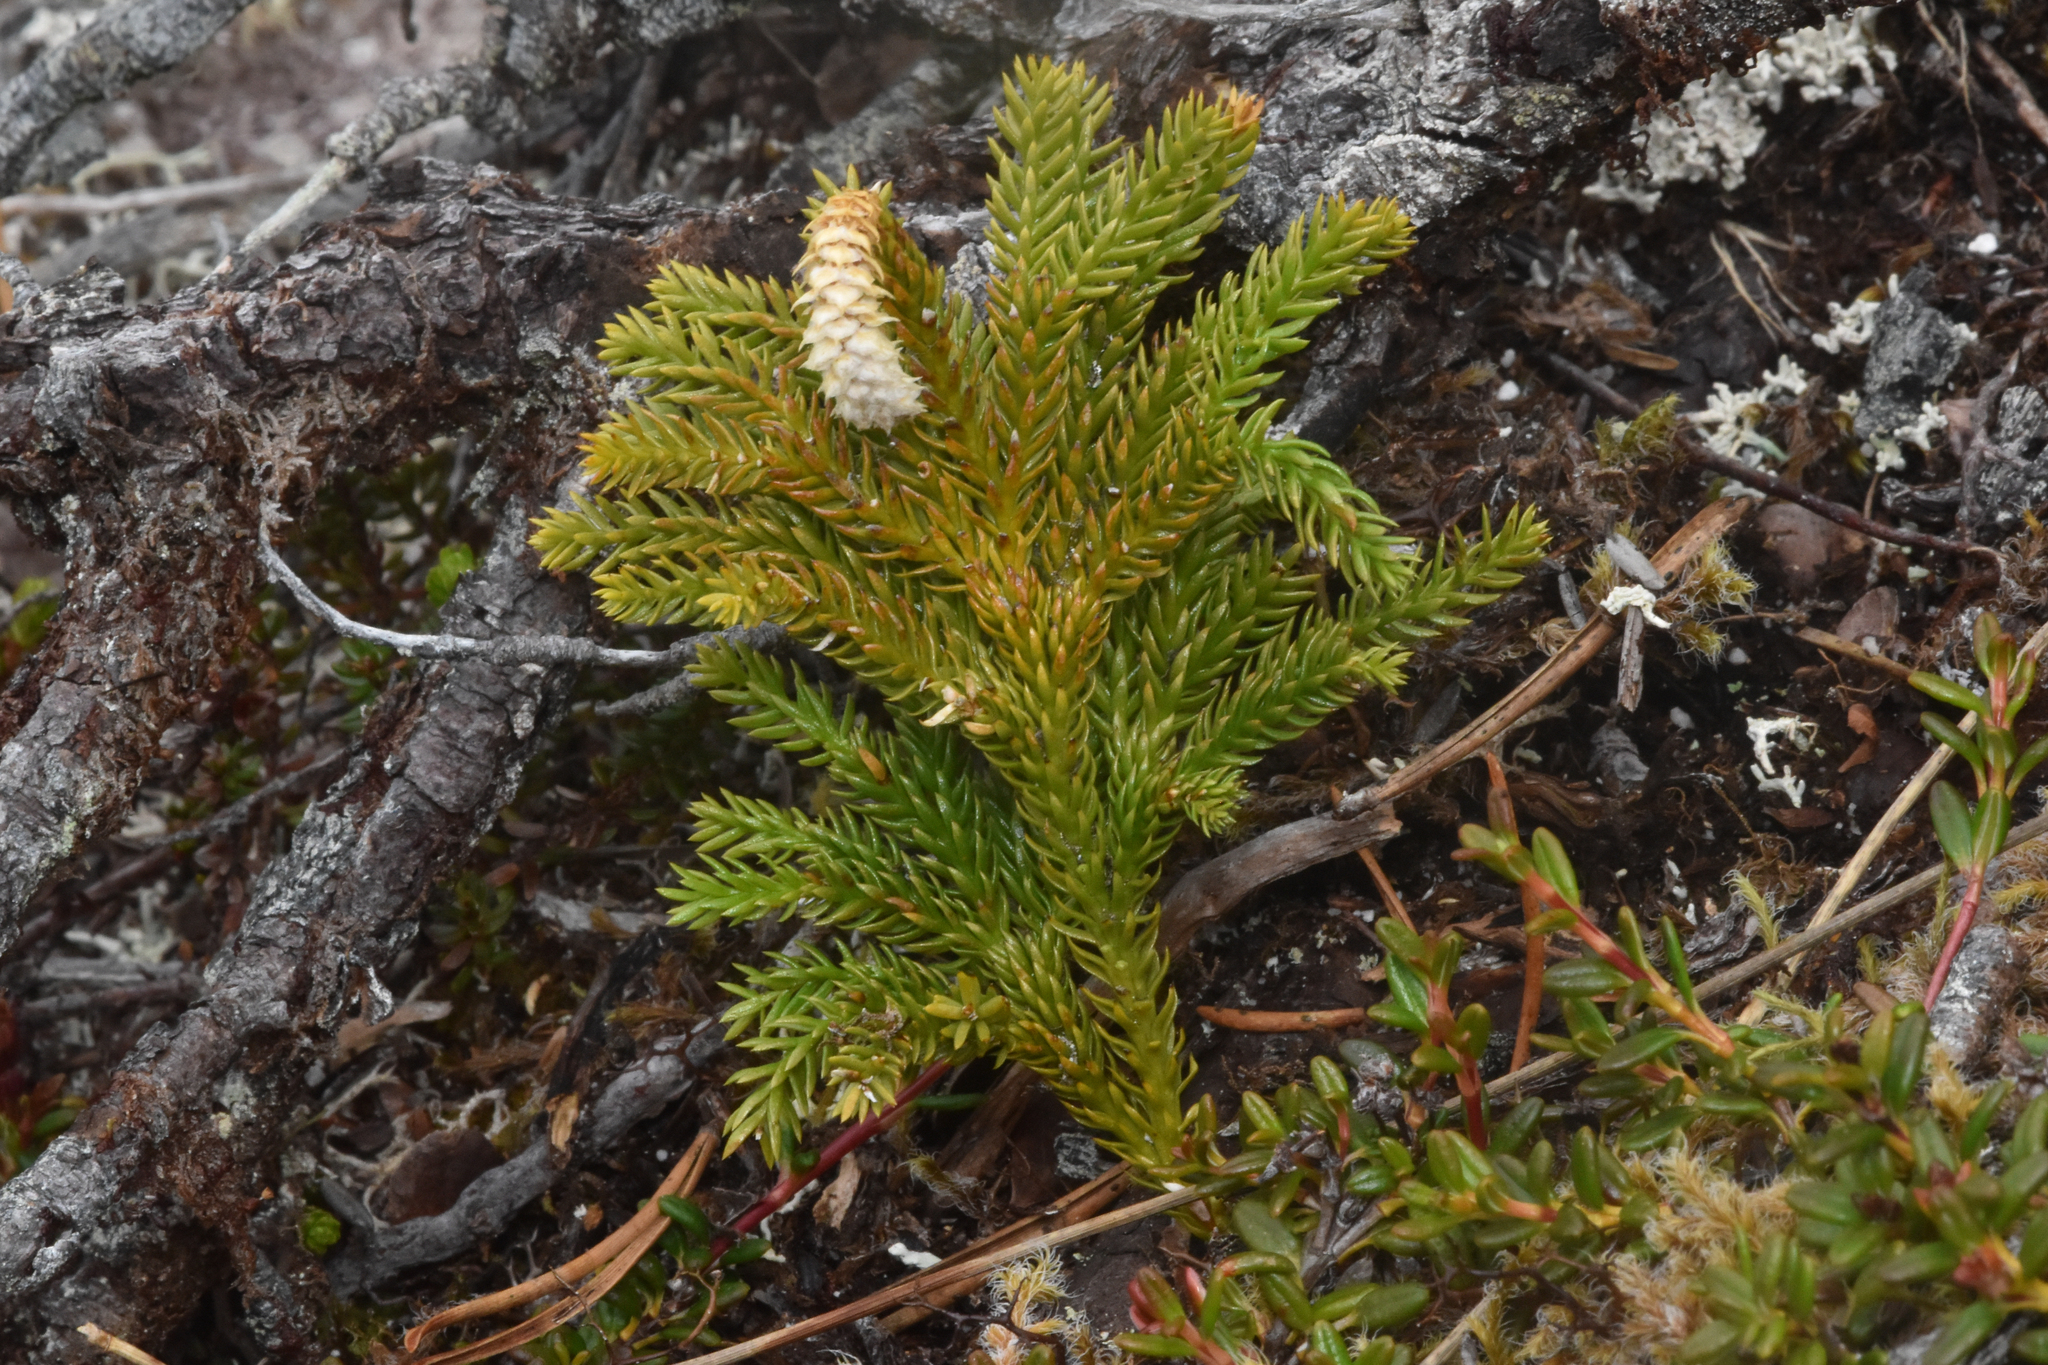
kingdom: Plantae
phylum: Tracheophyta
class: Lycopodiopsida
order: Lycopodiales
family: Lycopodiaceae
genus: Dendrolycopodium
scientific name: Dendrolycopodium dendroideum
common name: Northern tree-clubmoss
